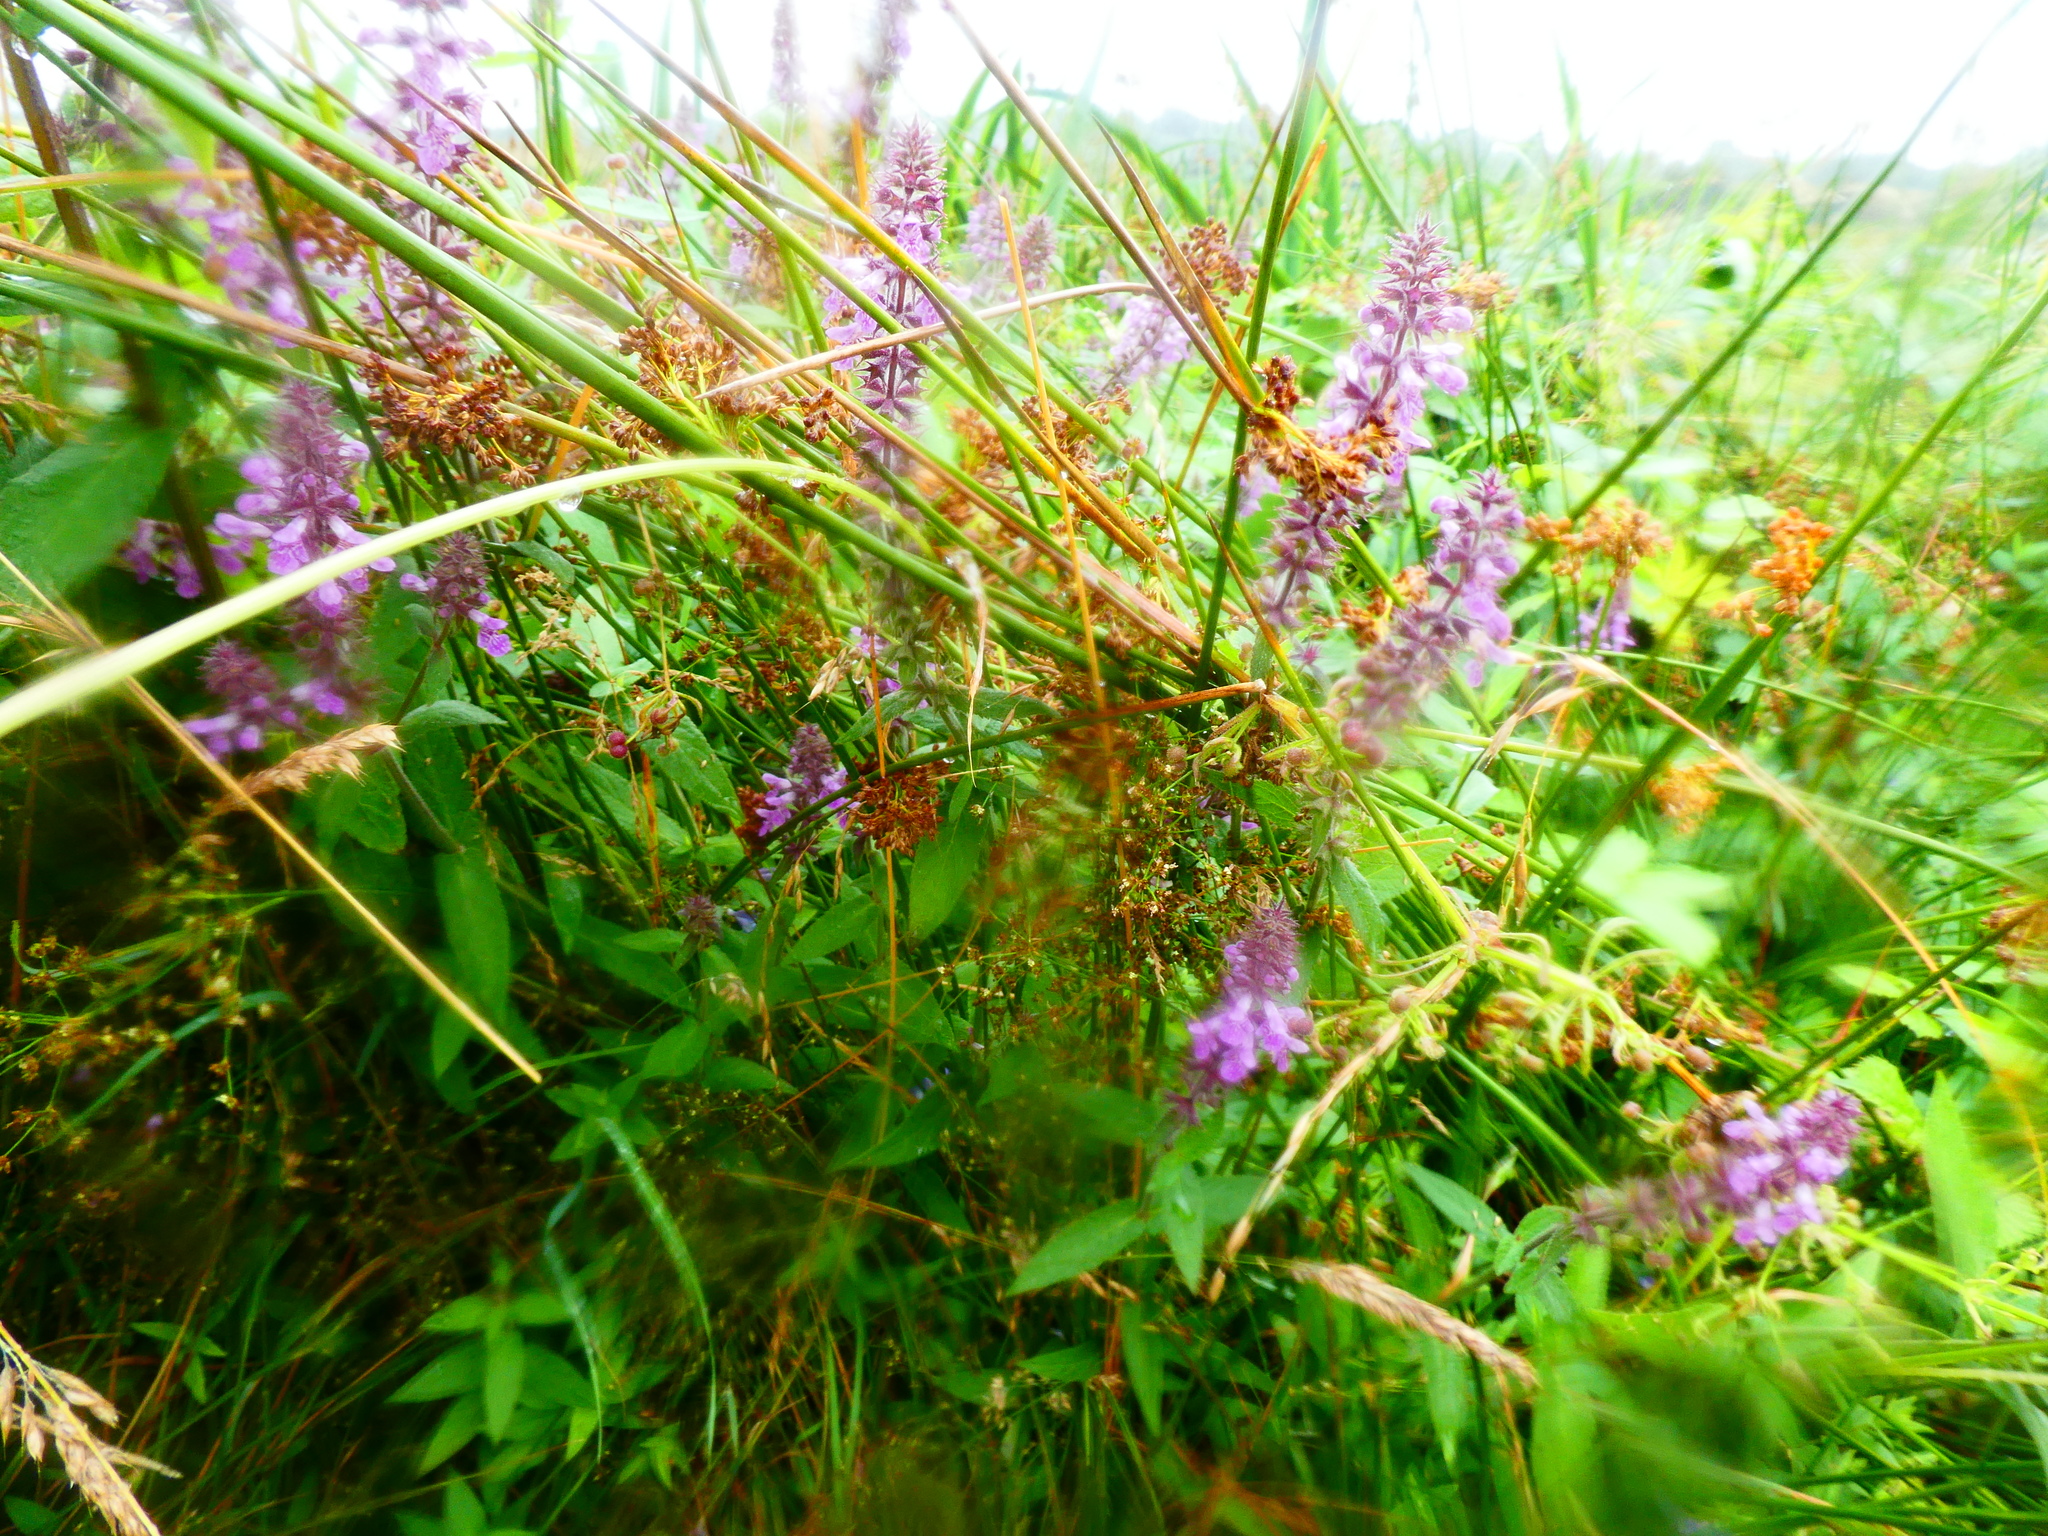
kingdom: Plantae
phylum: Tracheophyta
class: Magnoliopsida
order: Lamiales
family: Lamiaceae
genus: Stachys
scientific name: Stachys palustris
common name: Marsh woundwort
